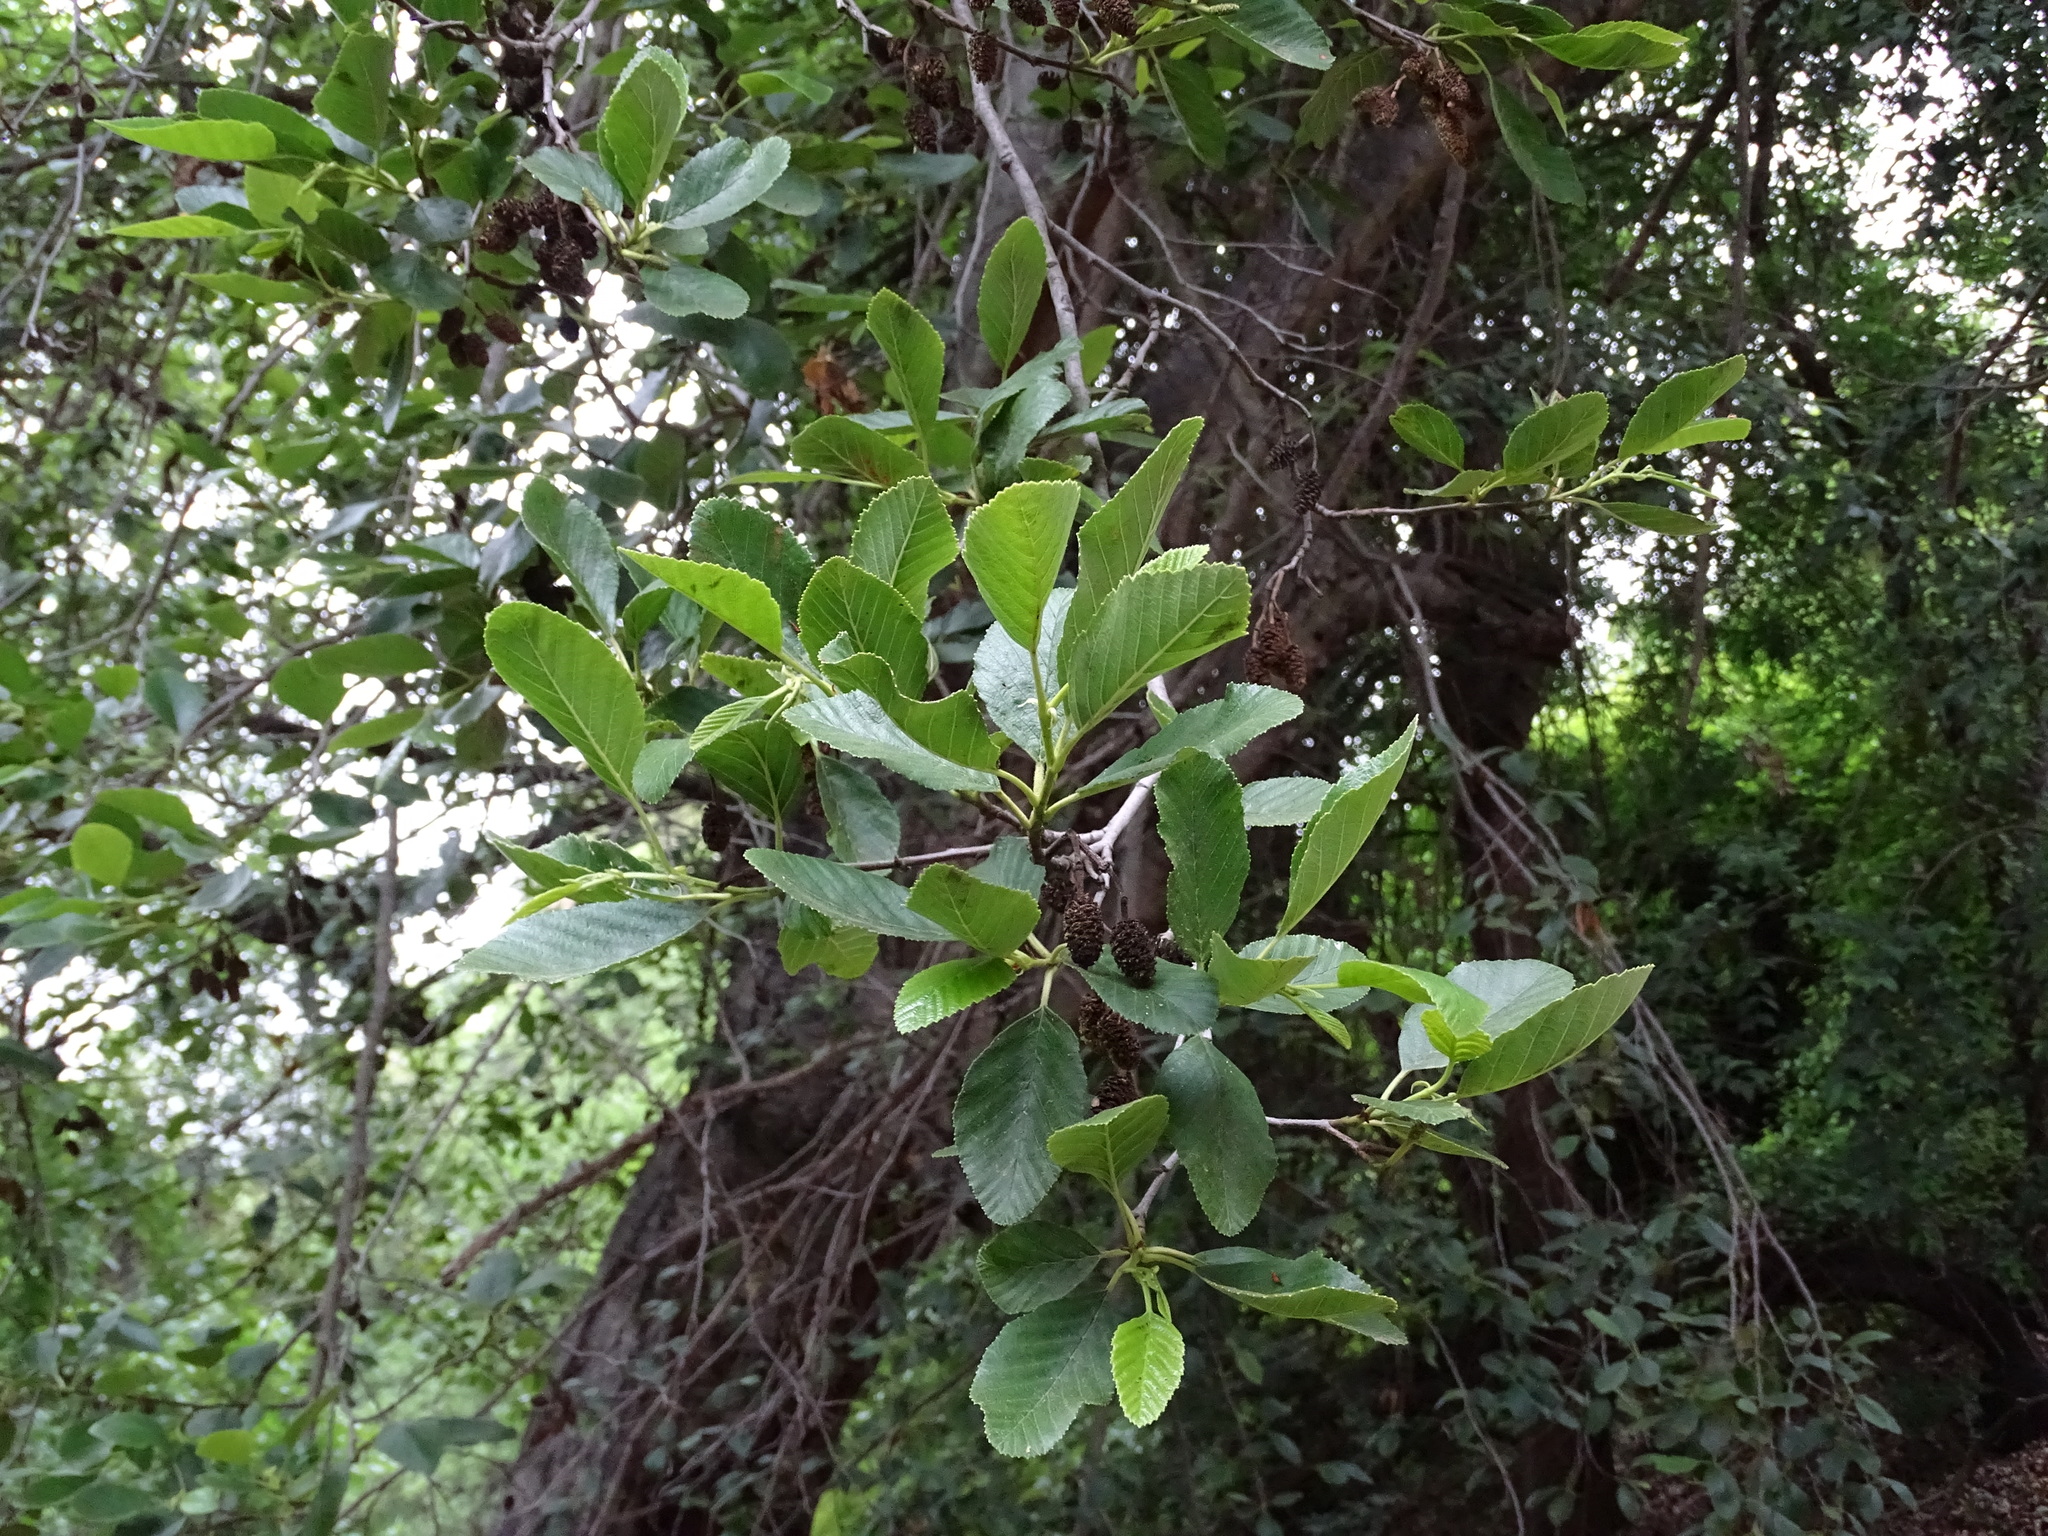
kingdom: Plantae
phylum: Tracheophyta
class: Magnoliopsida
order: Fagales
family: Betulaceae
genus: Alnus
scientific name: Alnus rhombifolia
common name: California alder
